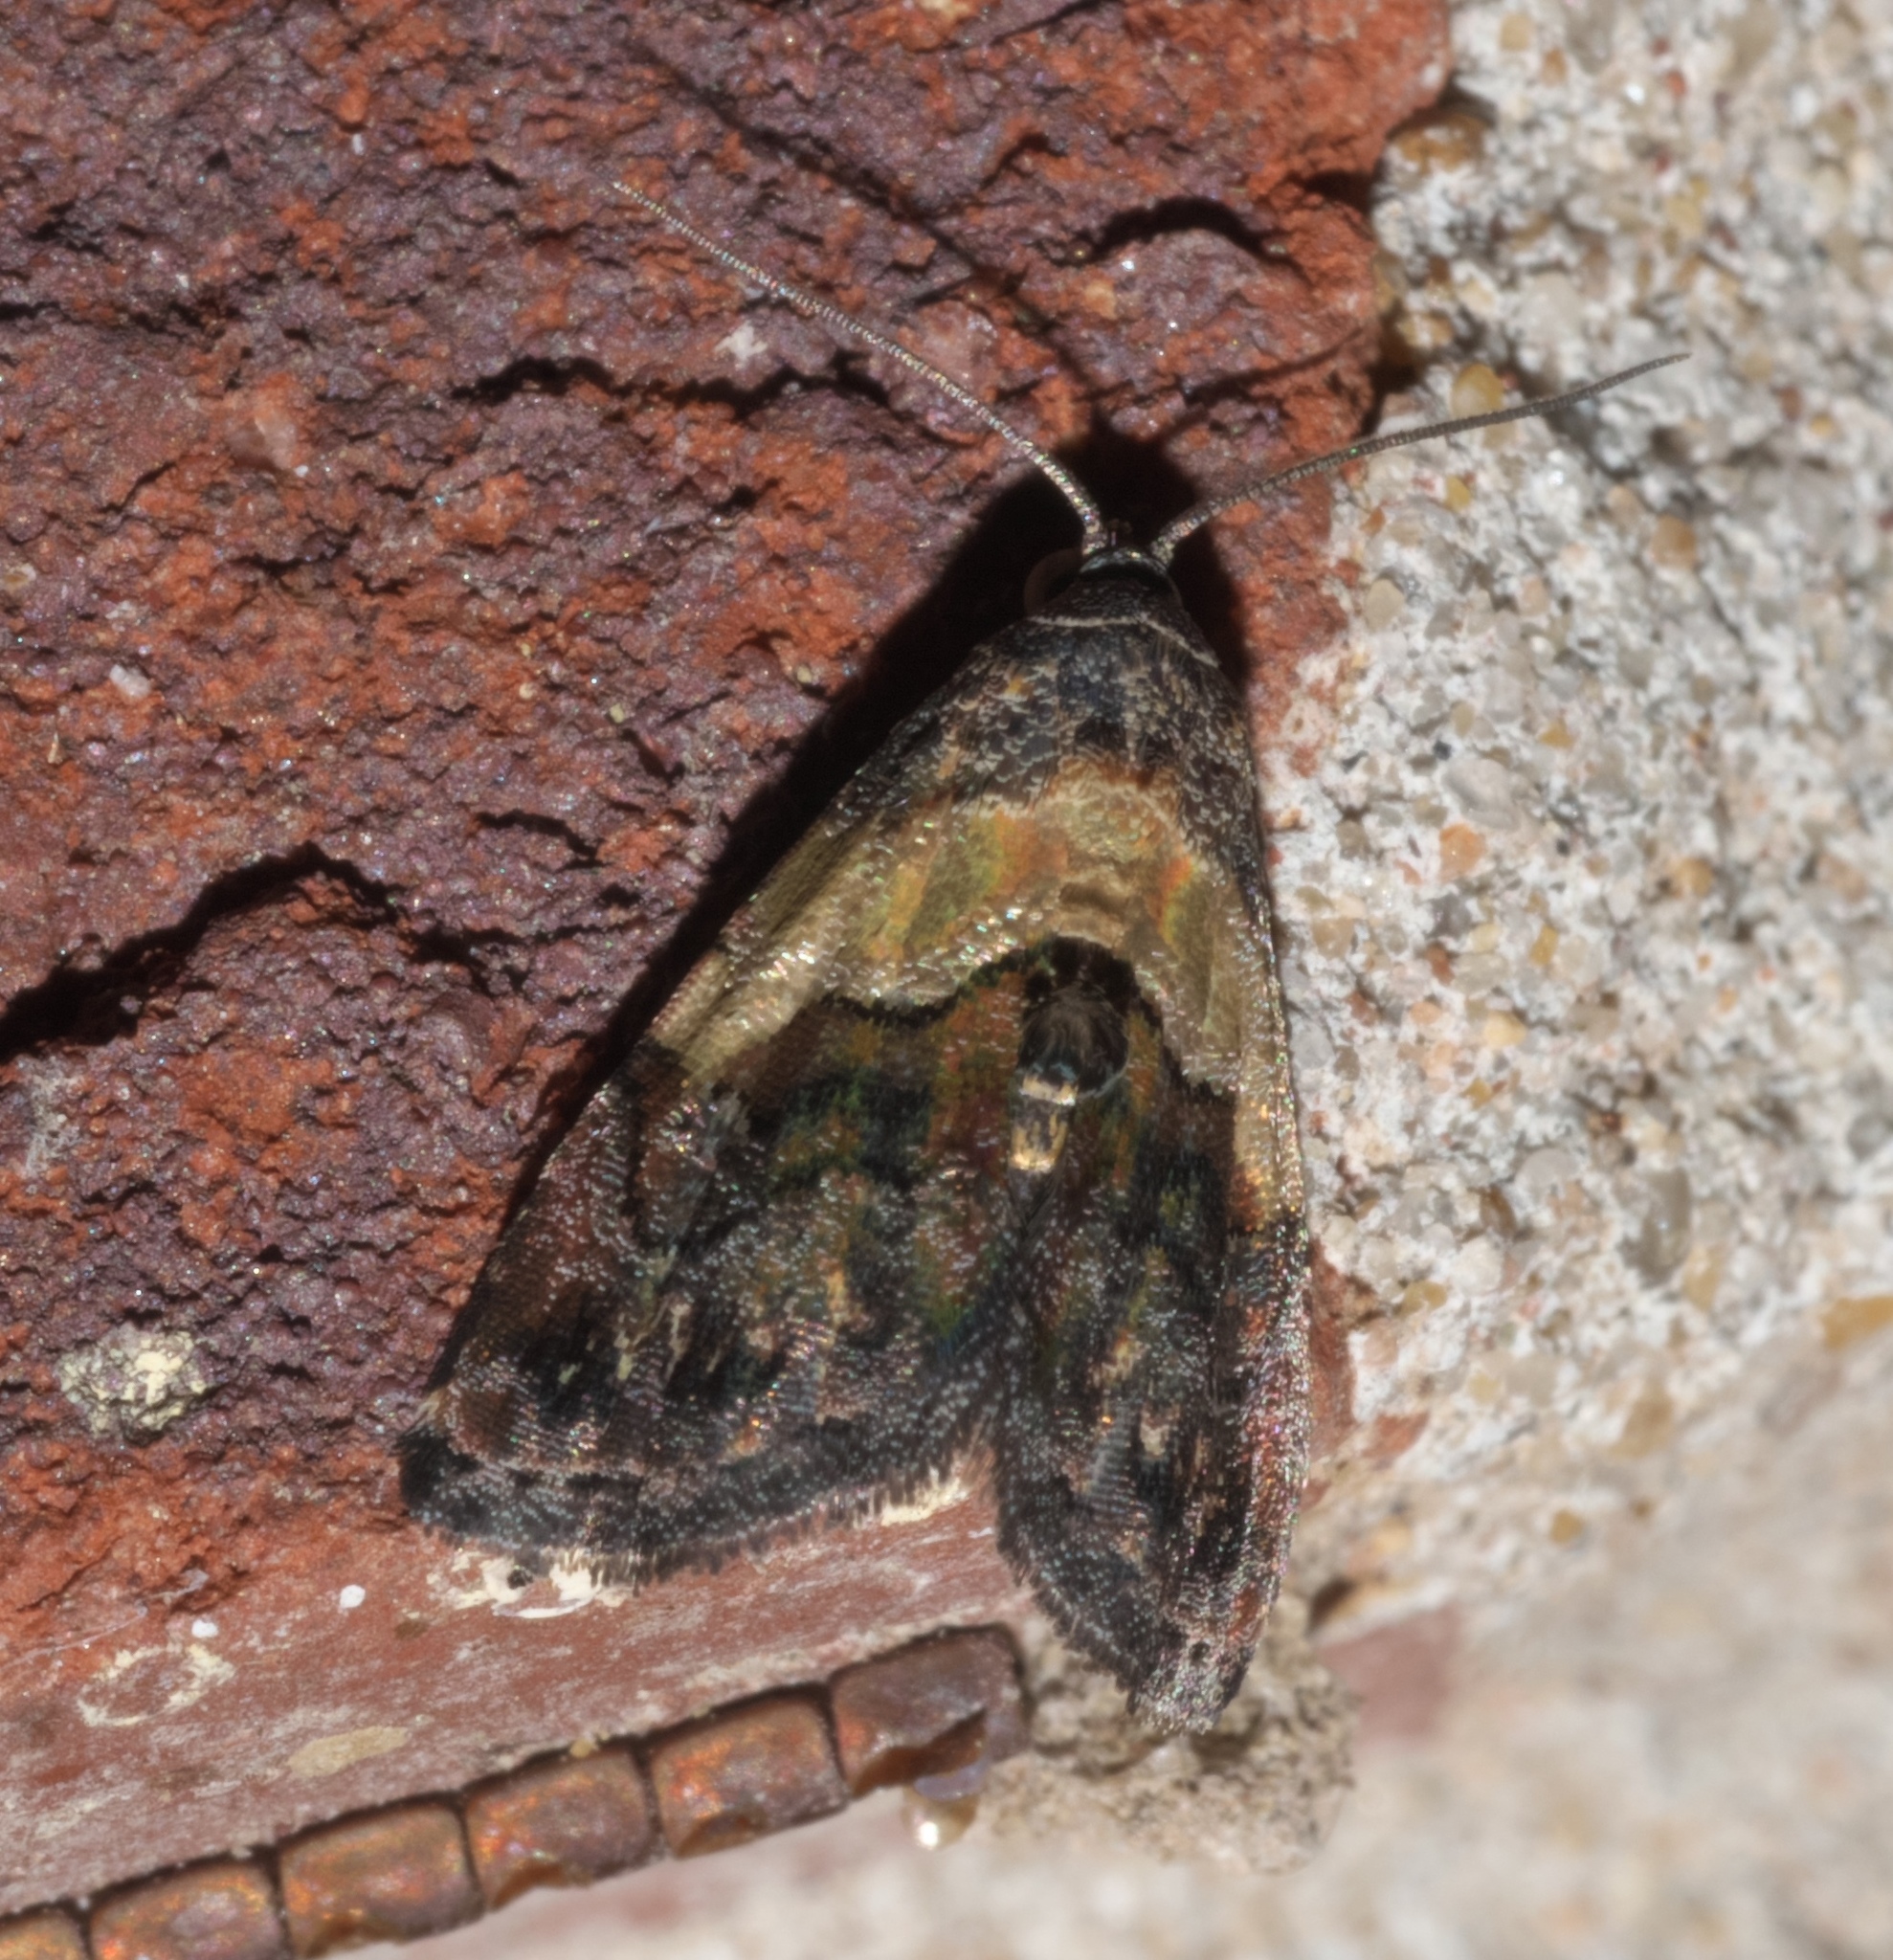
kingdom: Animalia
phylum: Arthropoda
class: Insecta
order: Lepidoptera
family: Noctuidae
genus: Tripudia
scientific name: Tripudia balteata
